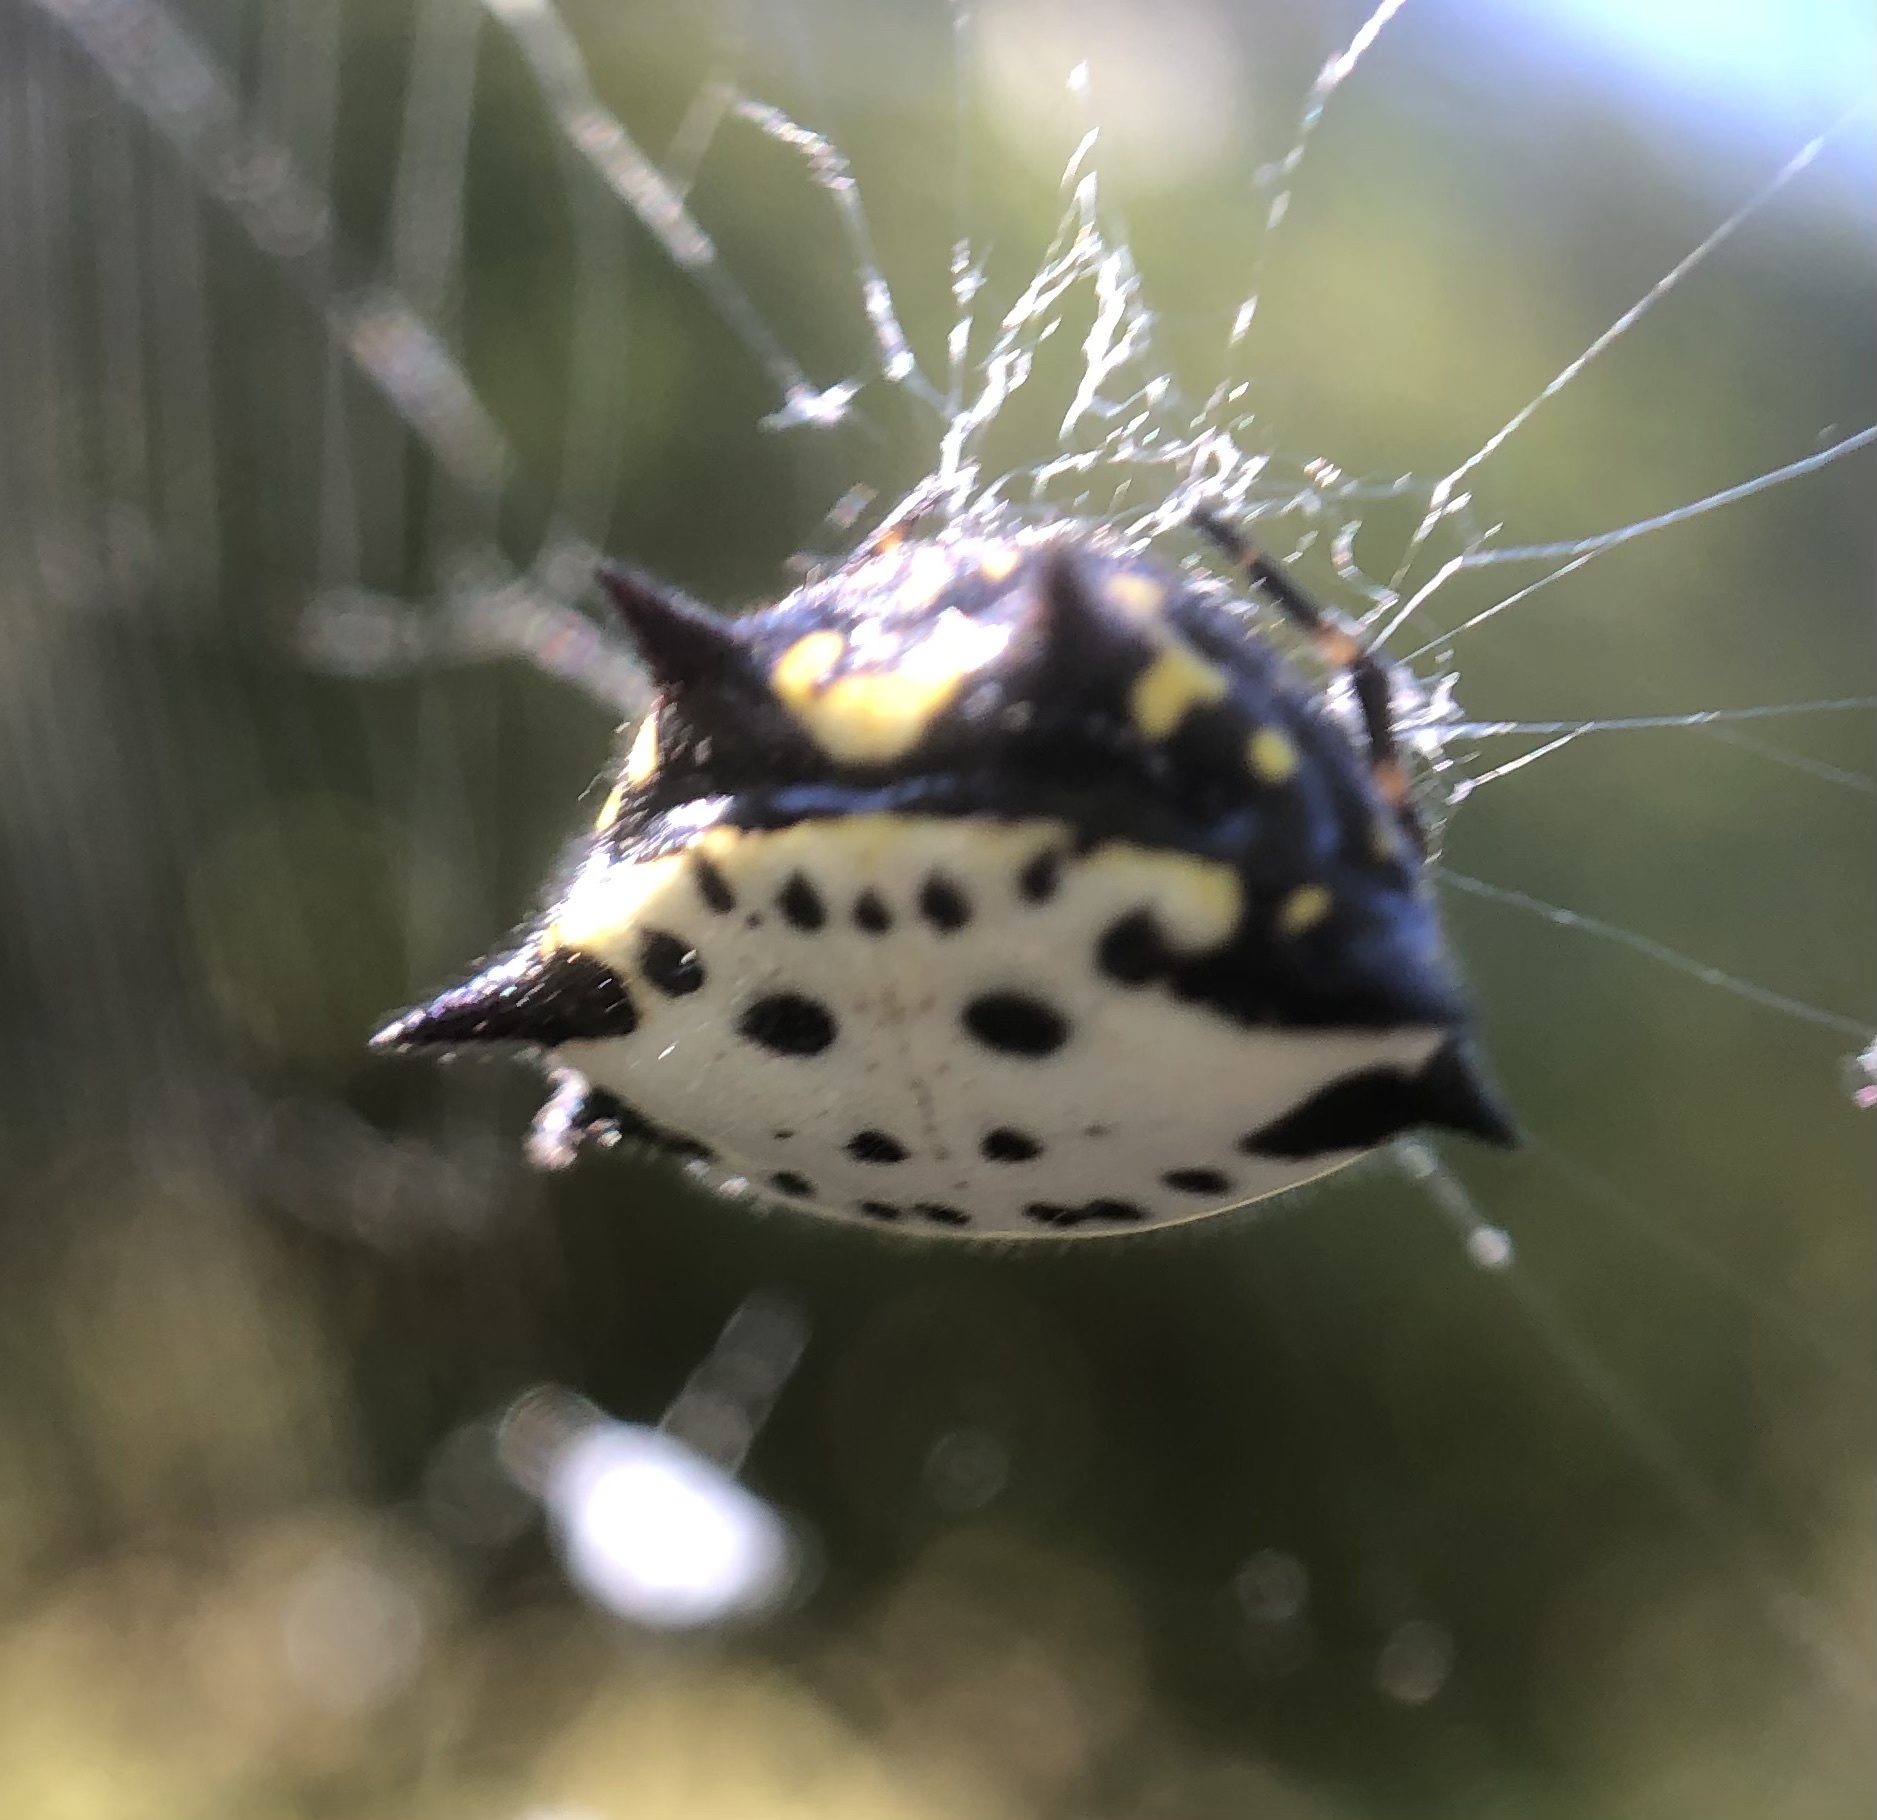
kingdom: Animalia
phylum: Arthropoda
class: Arachnida
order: Araneae
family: Araneidae
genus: Gasteracantha
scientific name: Gasteracantha cancriformis
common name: Orb weavers
